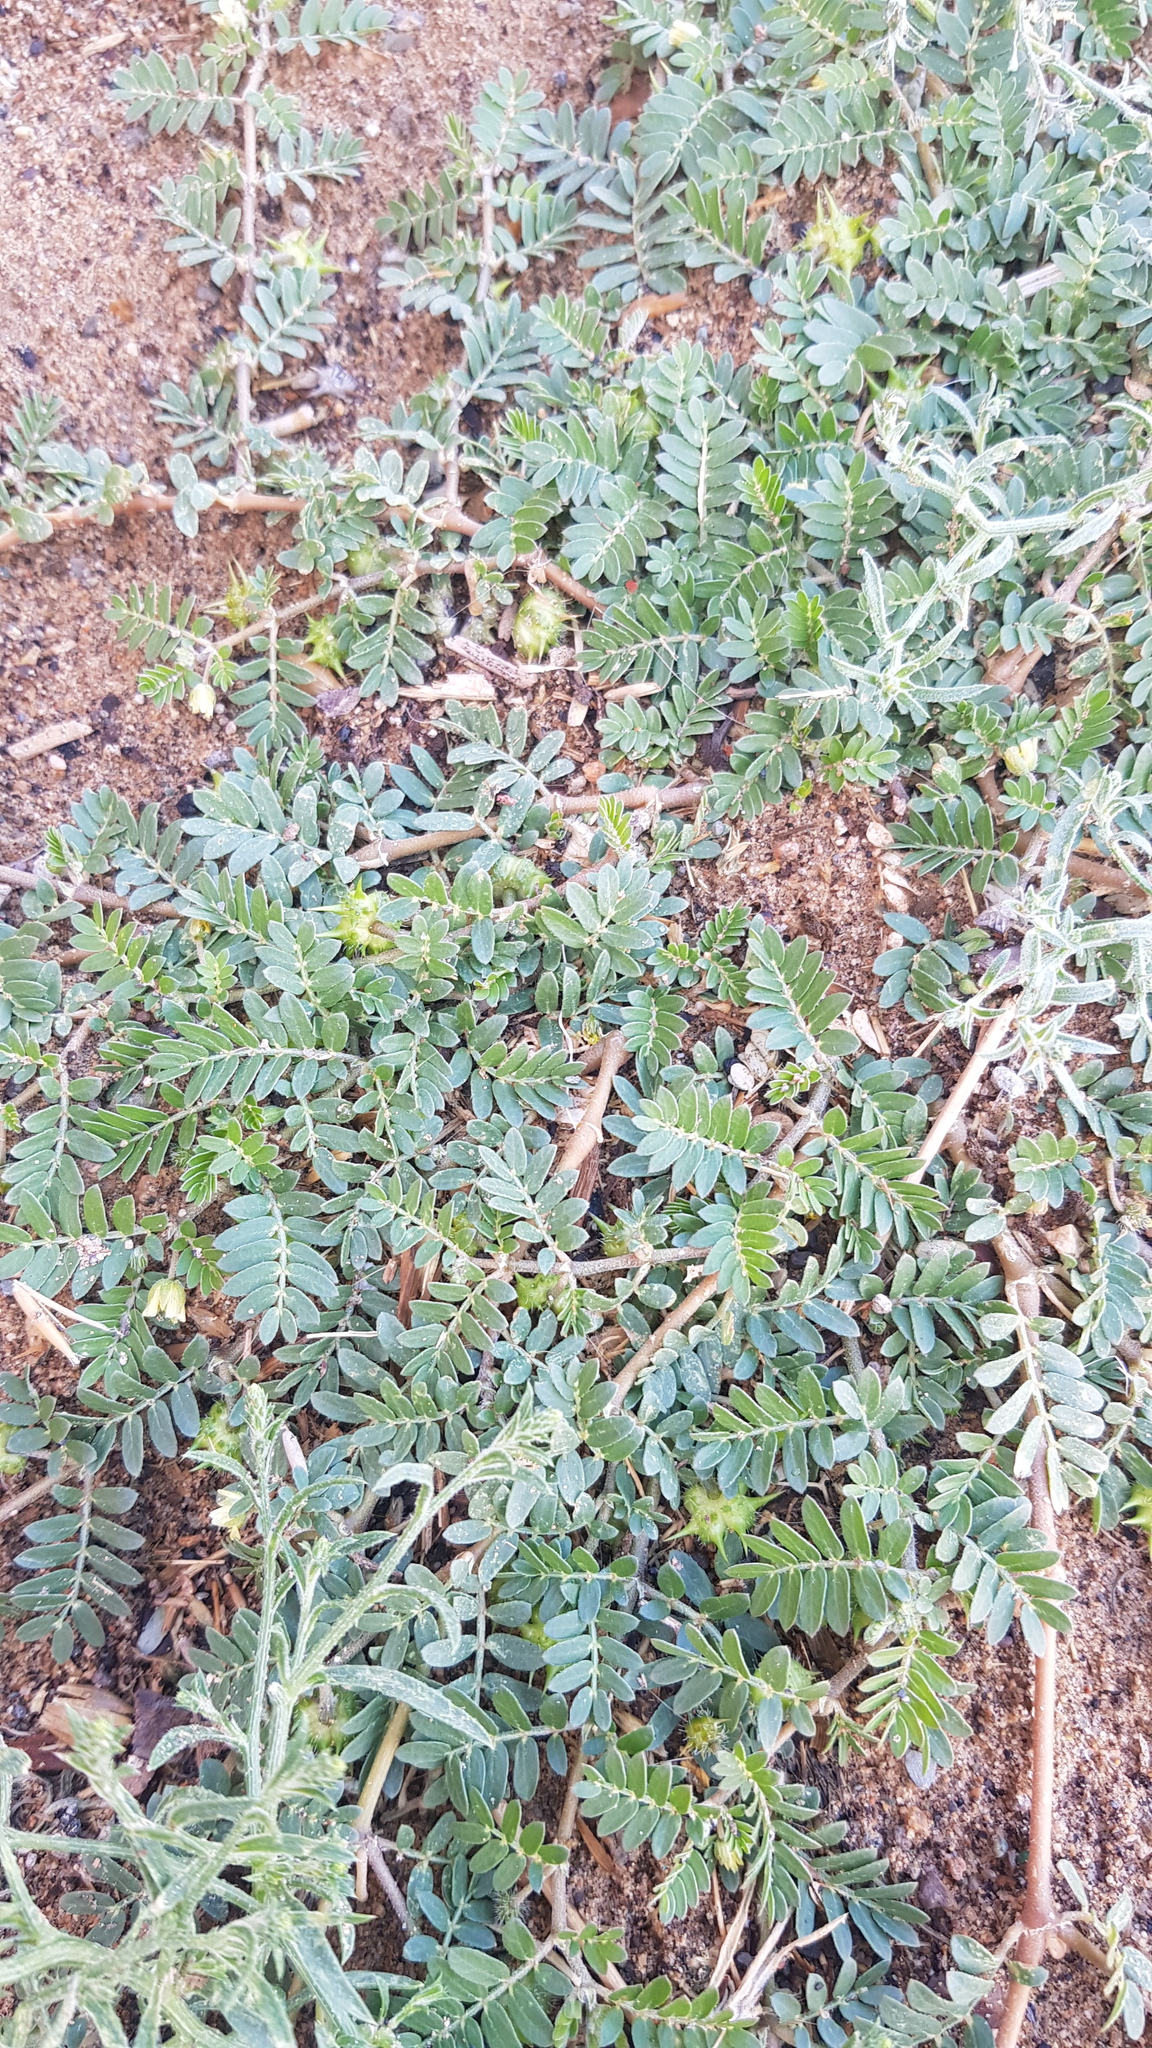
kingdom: Plantae
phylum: Tracheophyta
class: Magnoliopsida
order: Zygophyllales
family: Zygophyllaceae
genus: Tribulus
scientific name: Tribulus terrestris
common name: Puncturevine
